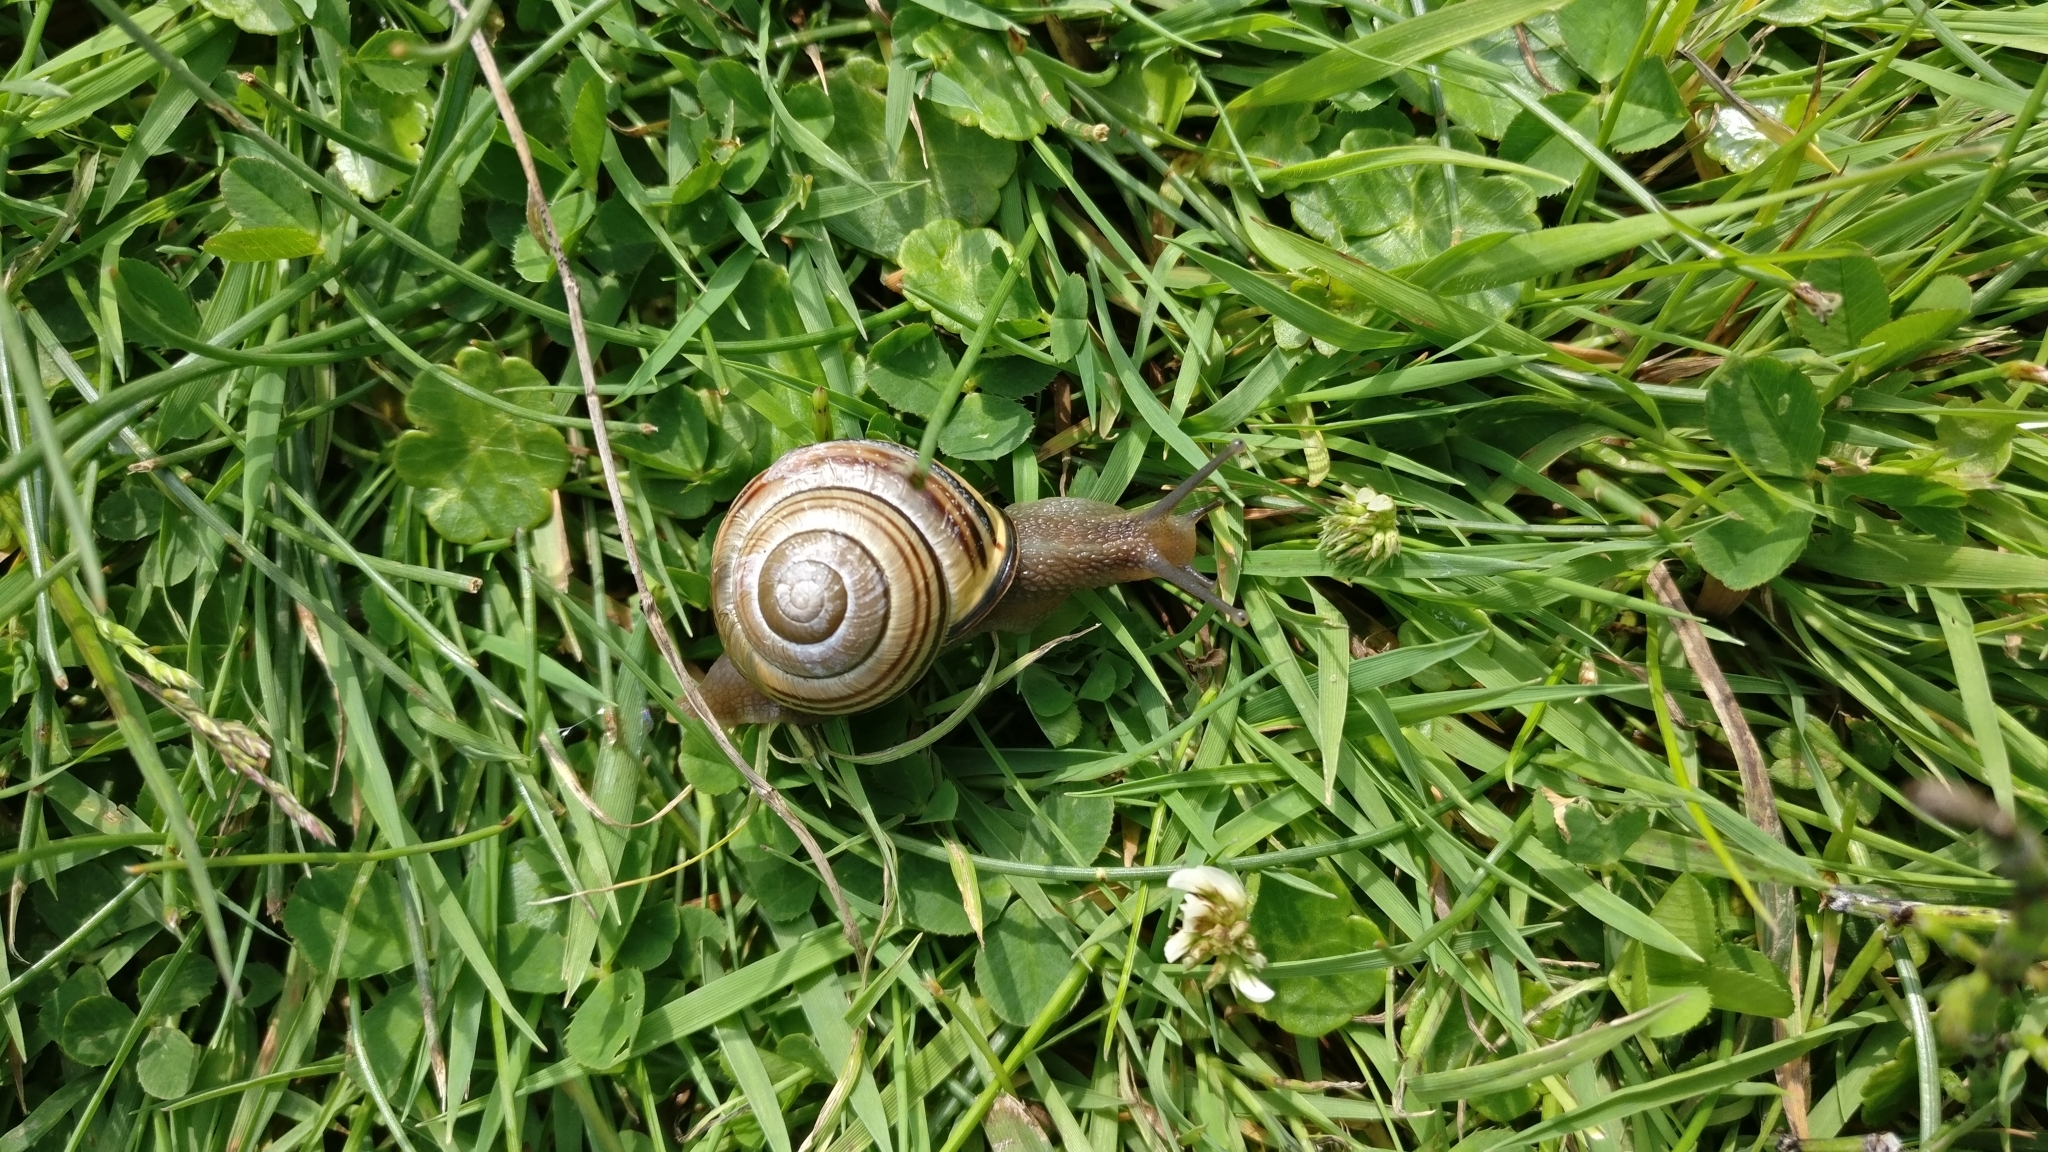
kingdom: Animalia
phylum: Mollusca
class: Gastropoda
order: Stylommatophora
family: Helicidae
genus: Cepaea
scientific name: Cepaea nemoralis
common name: Grovesnail
